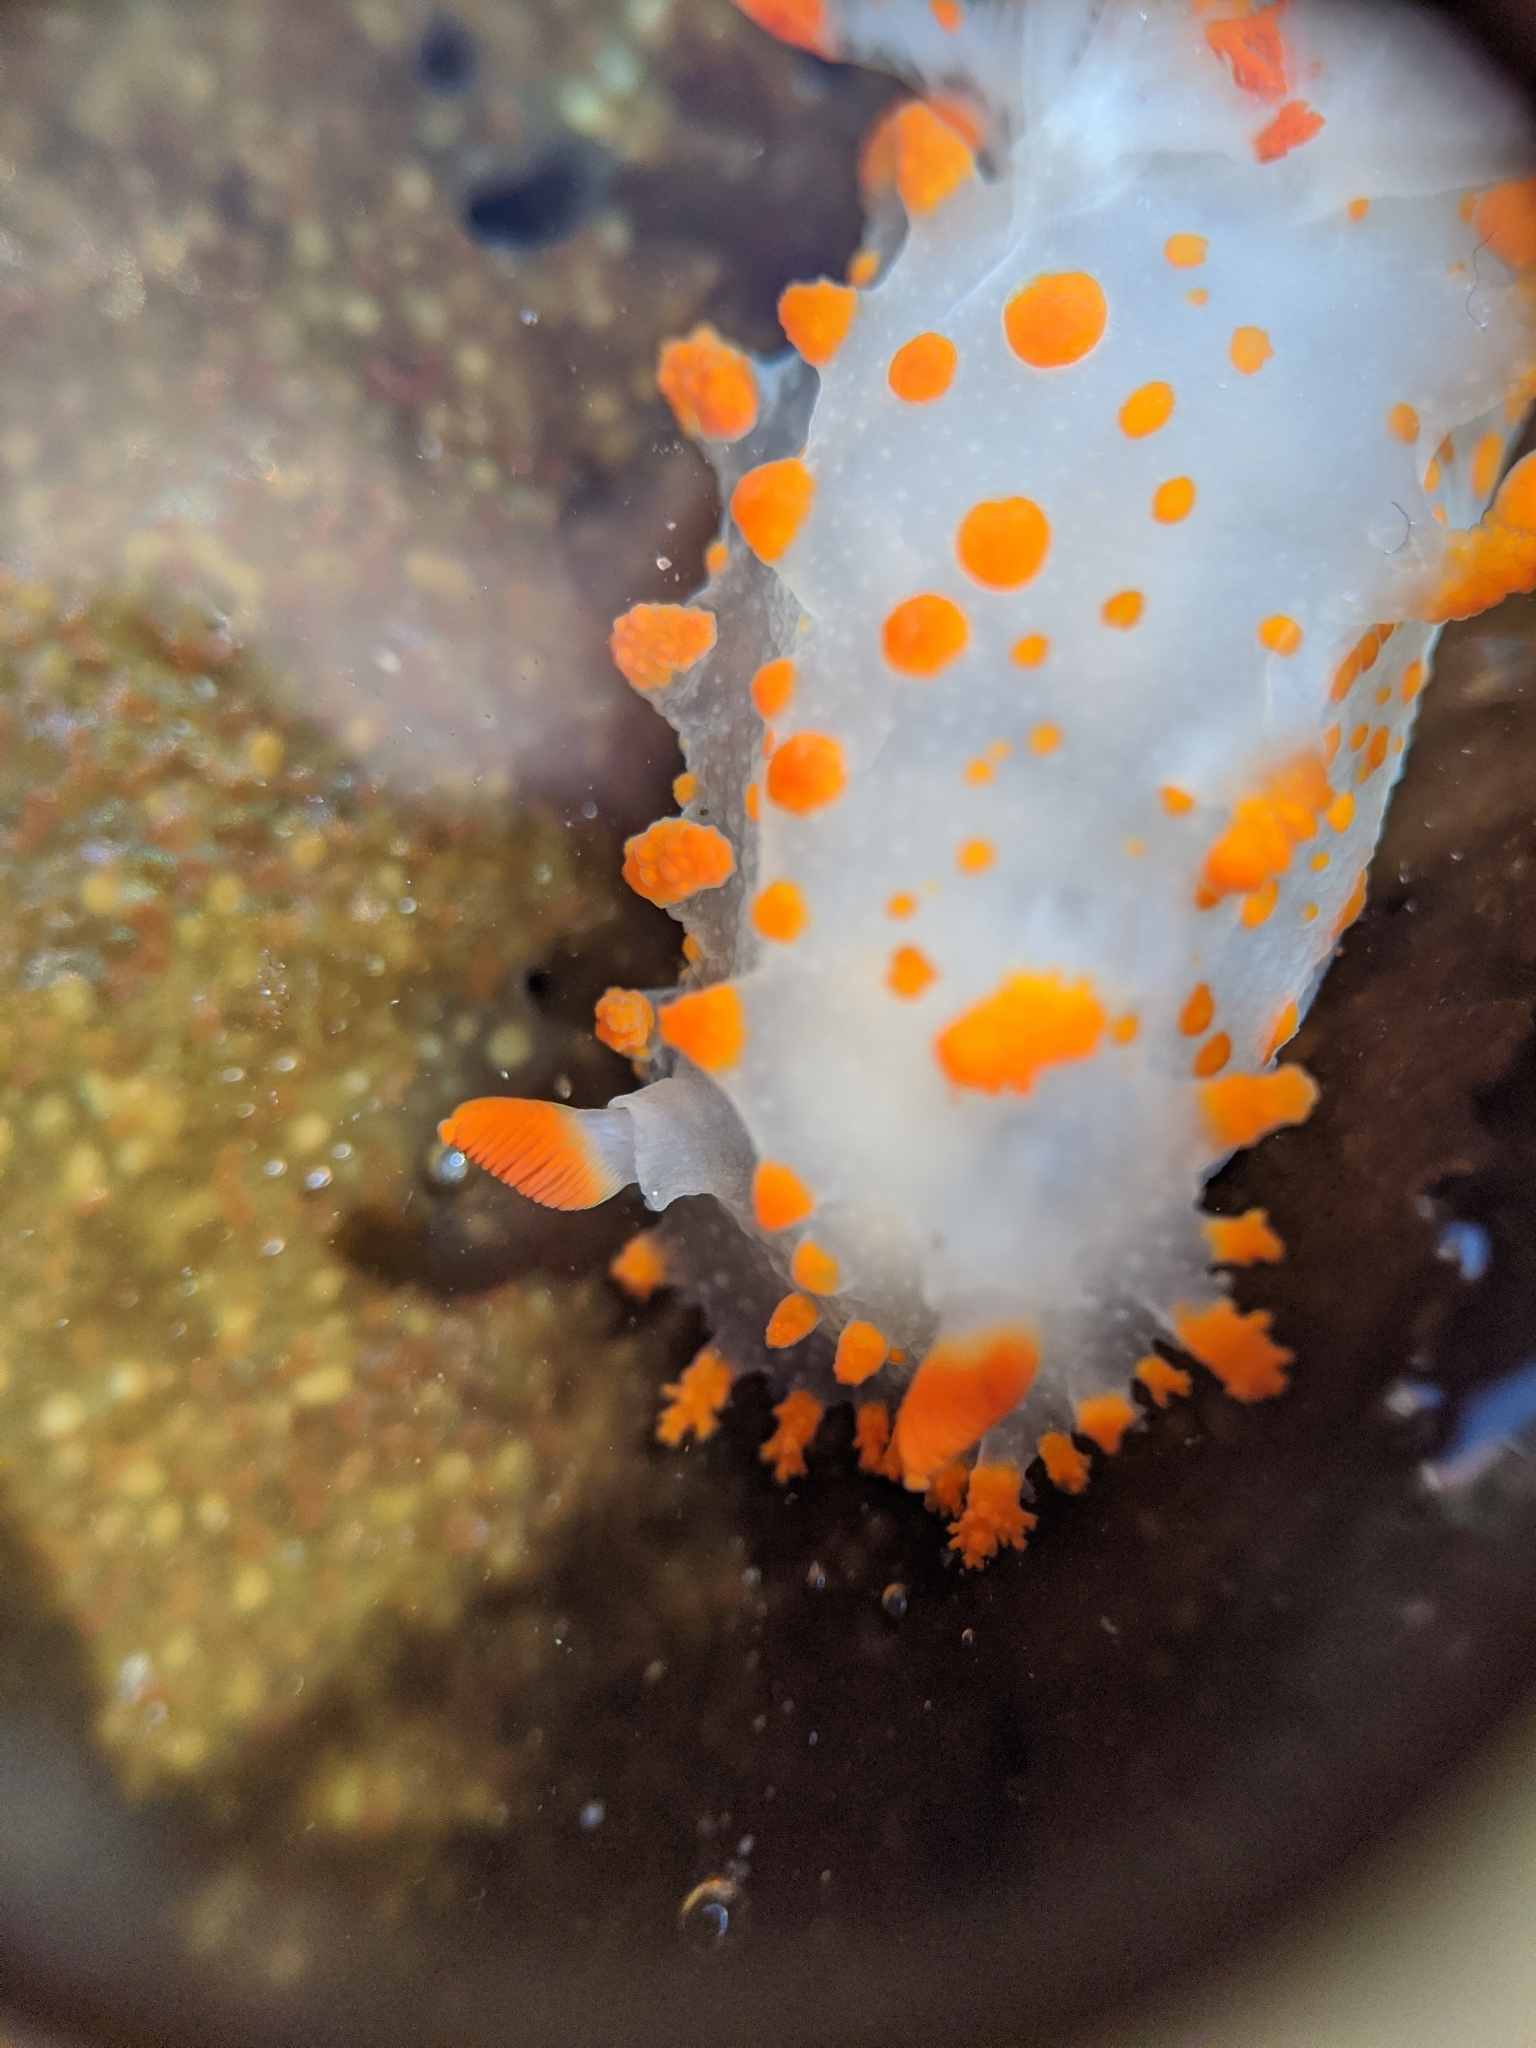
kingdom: Animalia
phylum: Mollusca
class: Gastropoda
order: Nudibranchia
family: Polyceridae
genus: Triopha
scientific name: Triopha catalinae
